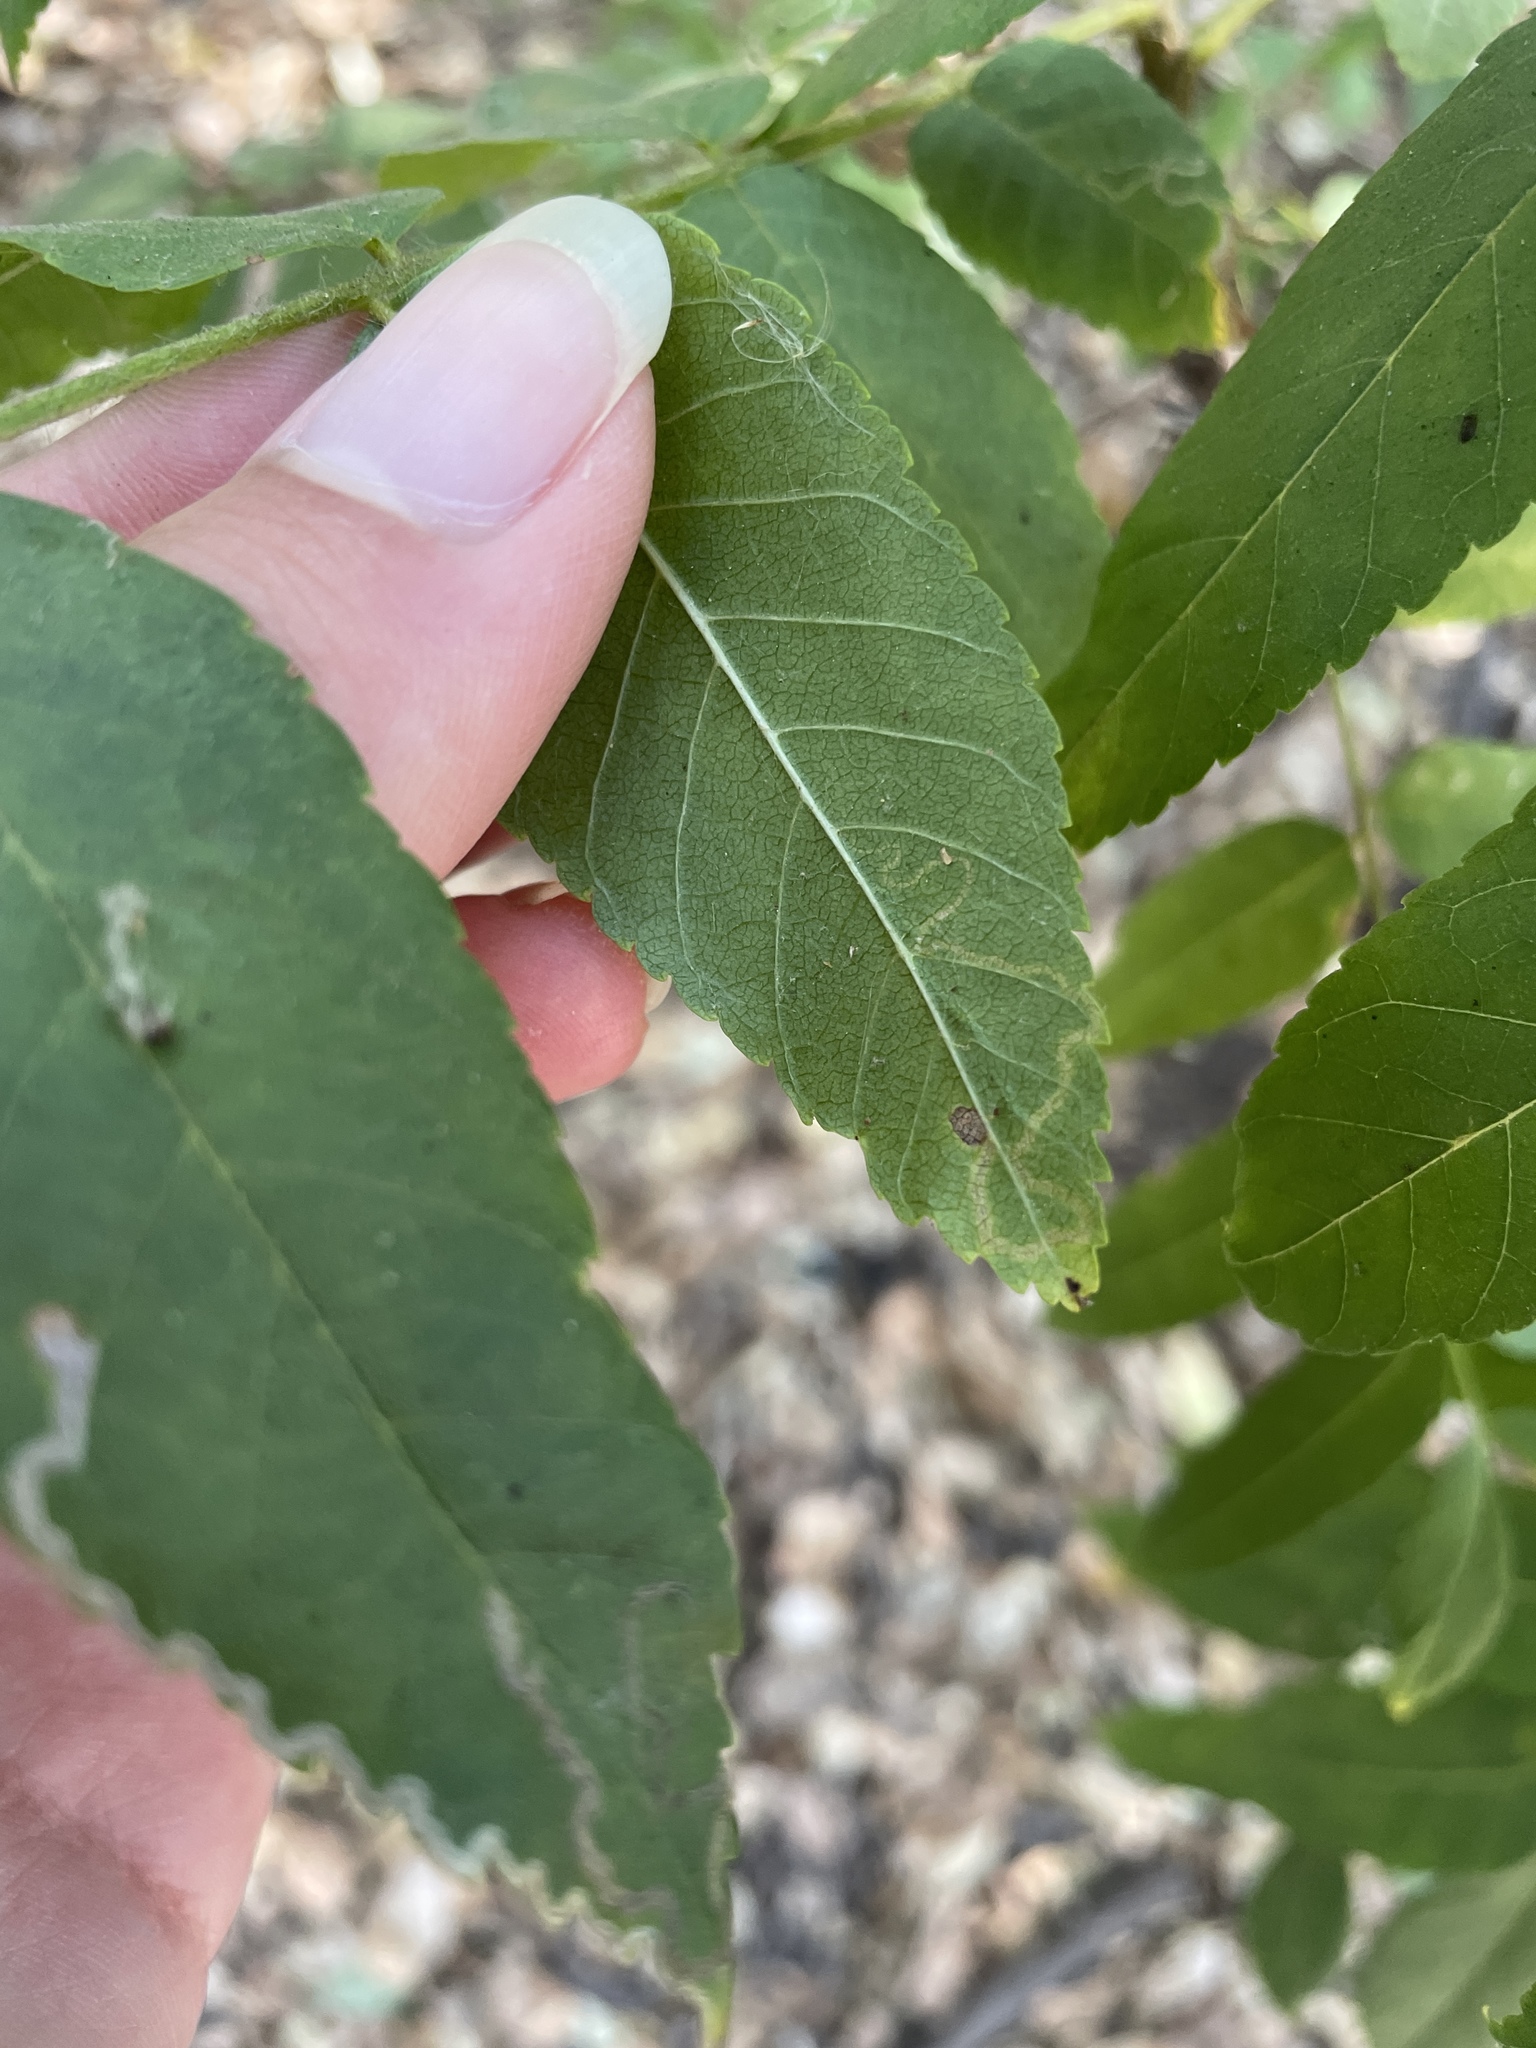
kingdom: Animalia
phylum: Arthropoda
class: Insecta
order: Lepidoptera
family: Nepticulidae
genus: Stigmella
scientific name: Stigmella longisacca
